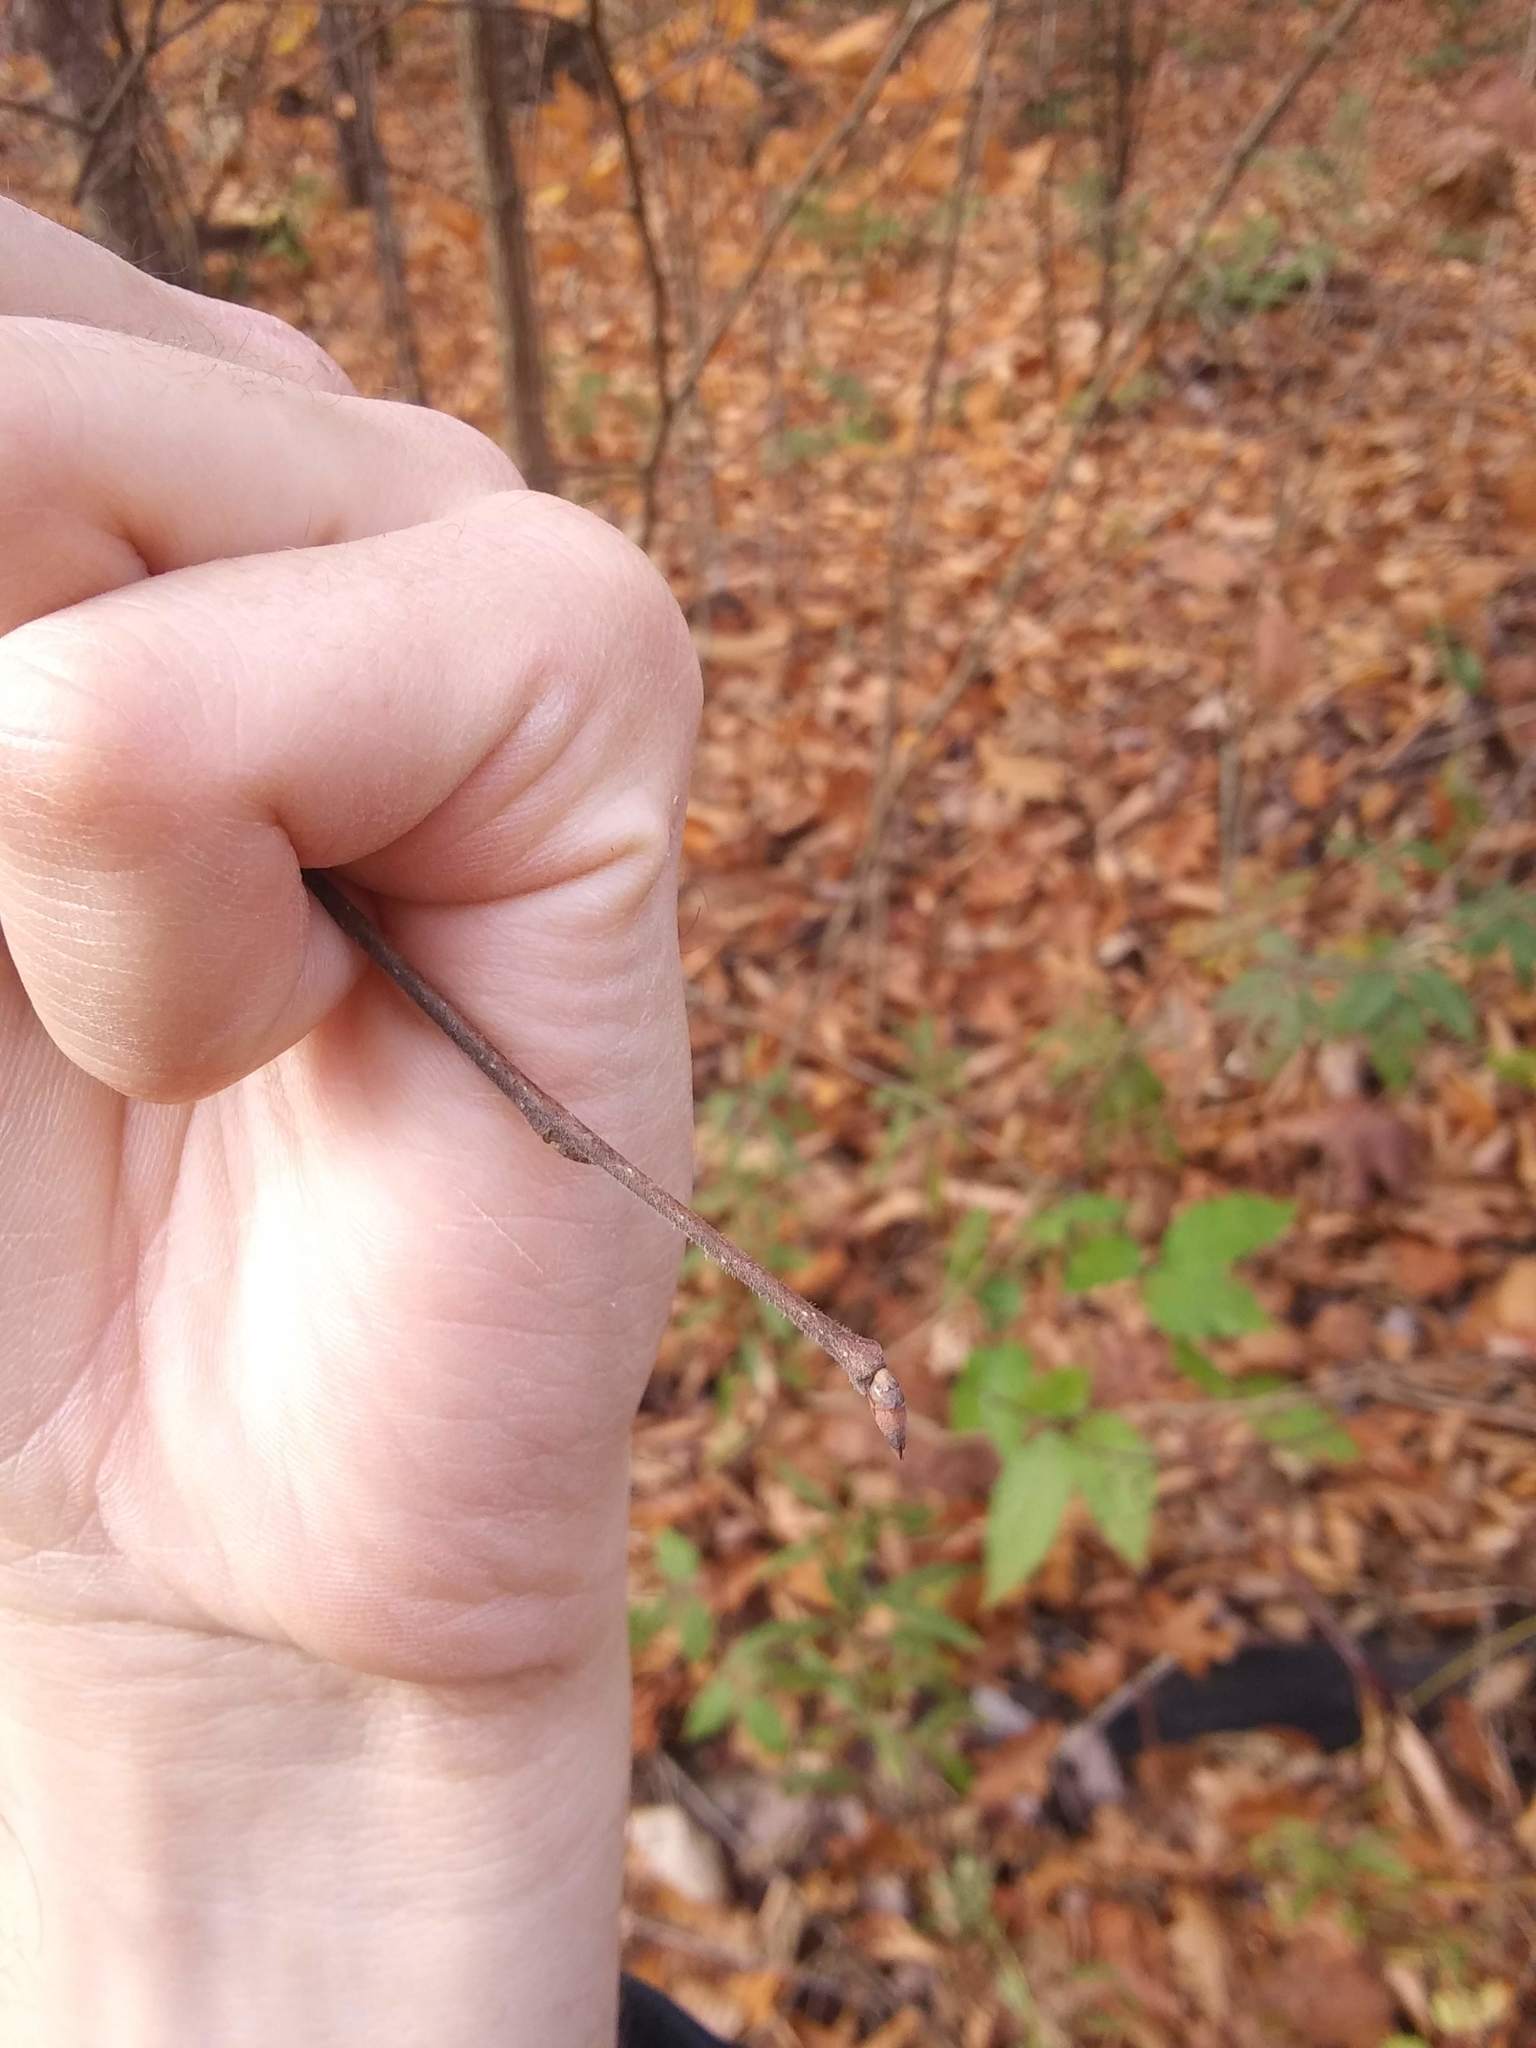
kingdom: Plantae
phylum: Tracheophyta
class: Magnoliopsida
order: Rosales
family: Ulmaceae
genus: Ulmus
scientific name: Ulmus americana
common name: American elm
